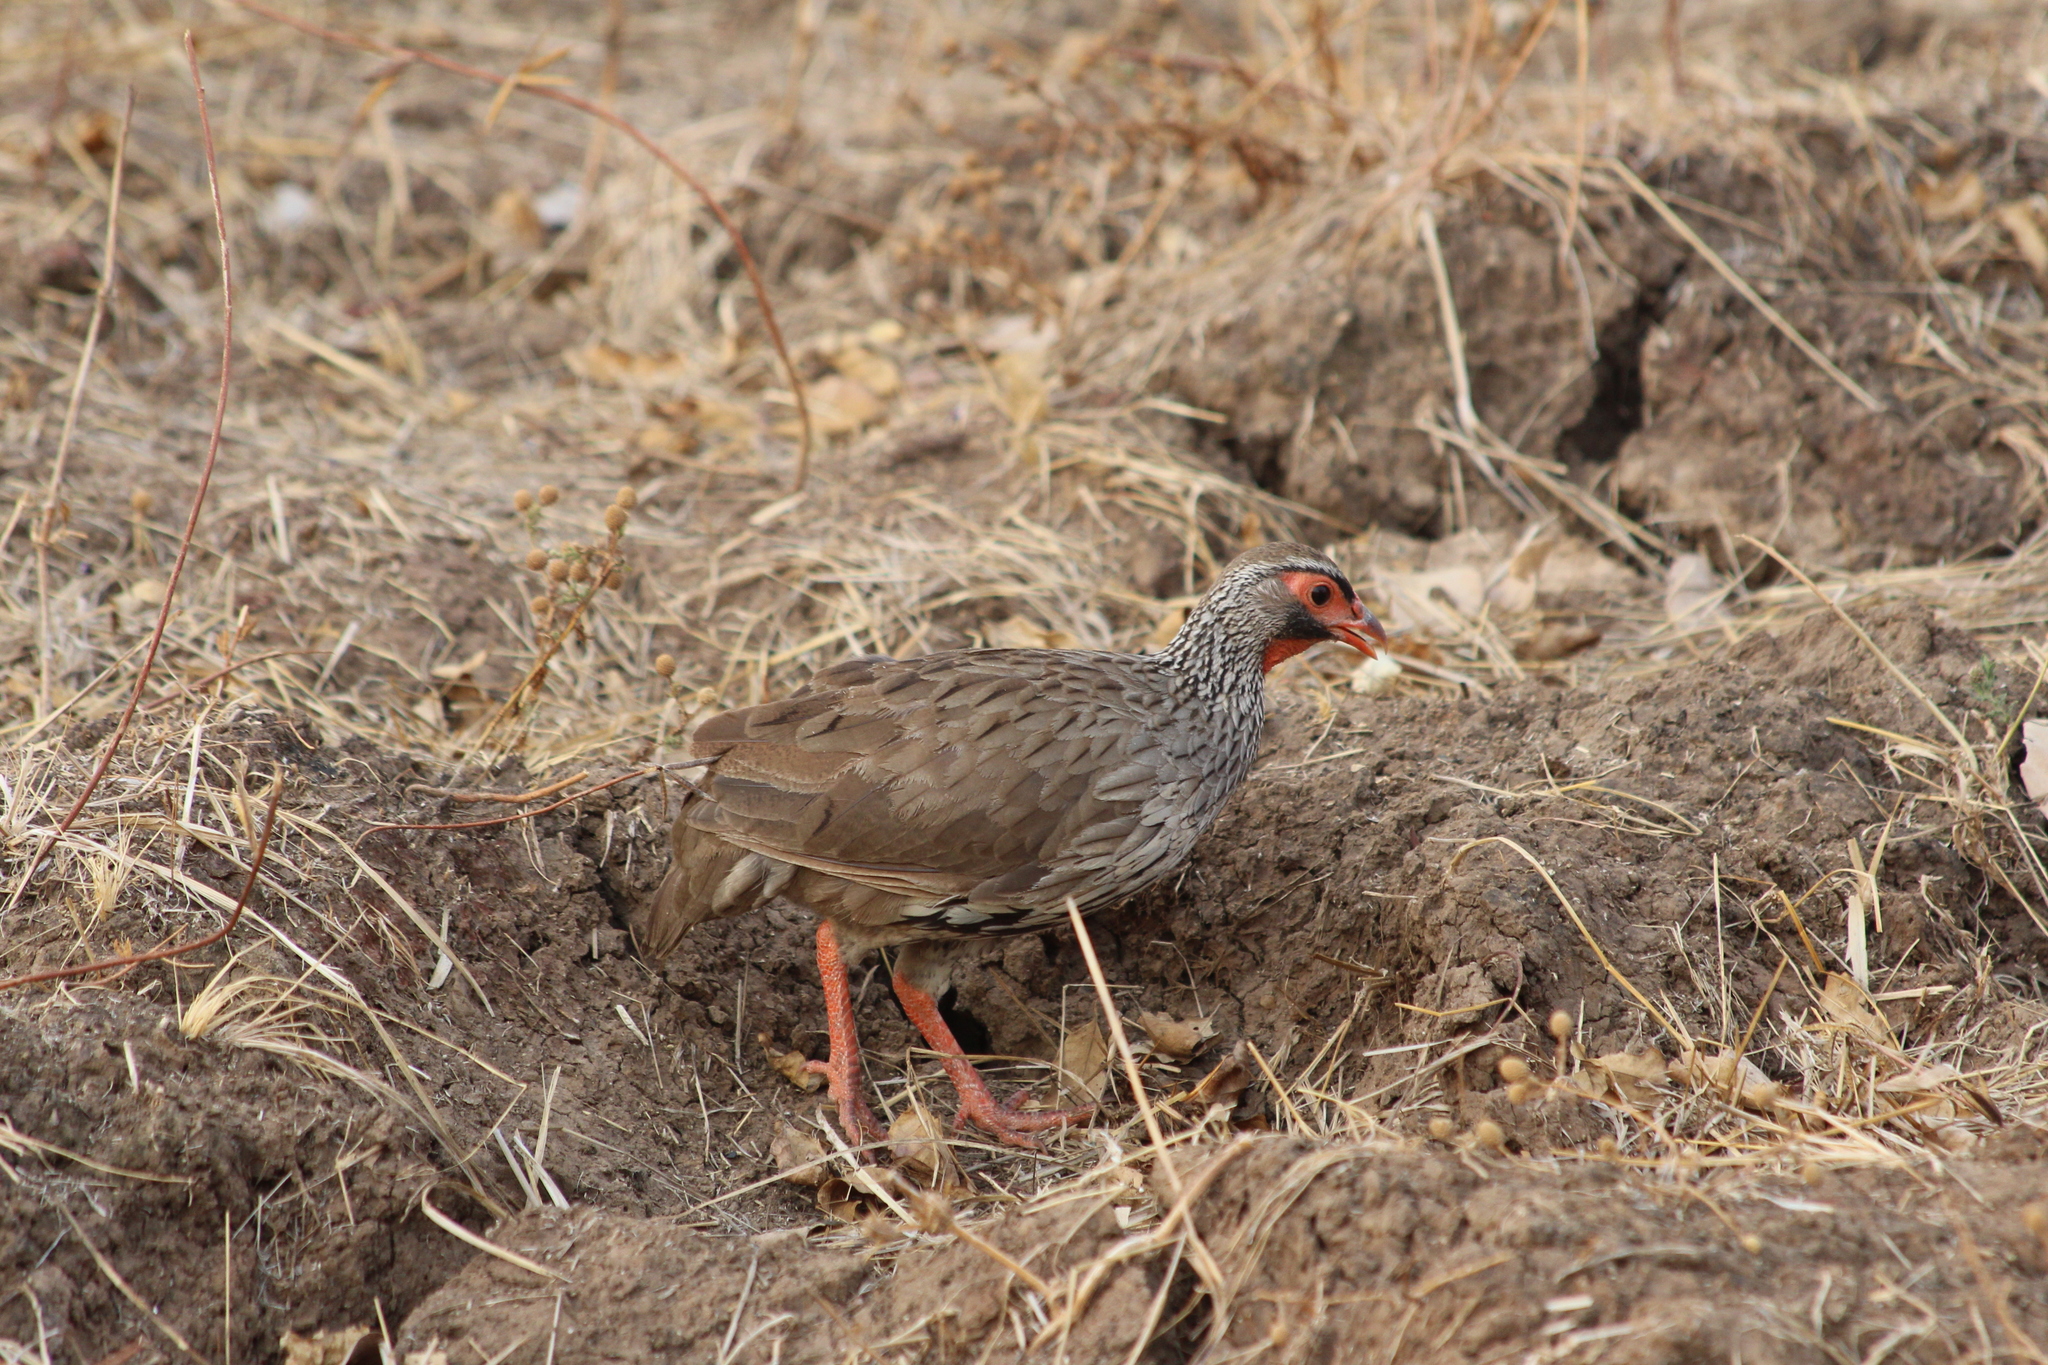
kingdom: Animalia
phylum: Chordata
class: Aves
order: Galliformes
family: Phasianidae
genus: Pternistis
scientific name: Pternistis afer
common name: Red-necked spurfowl
